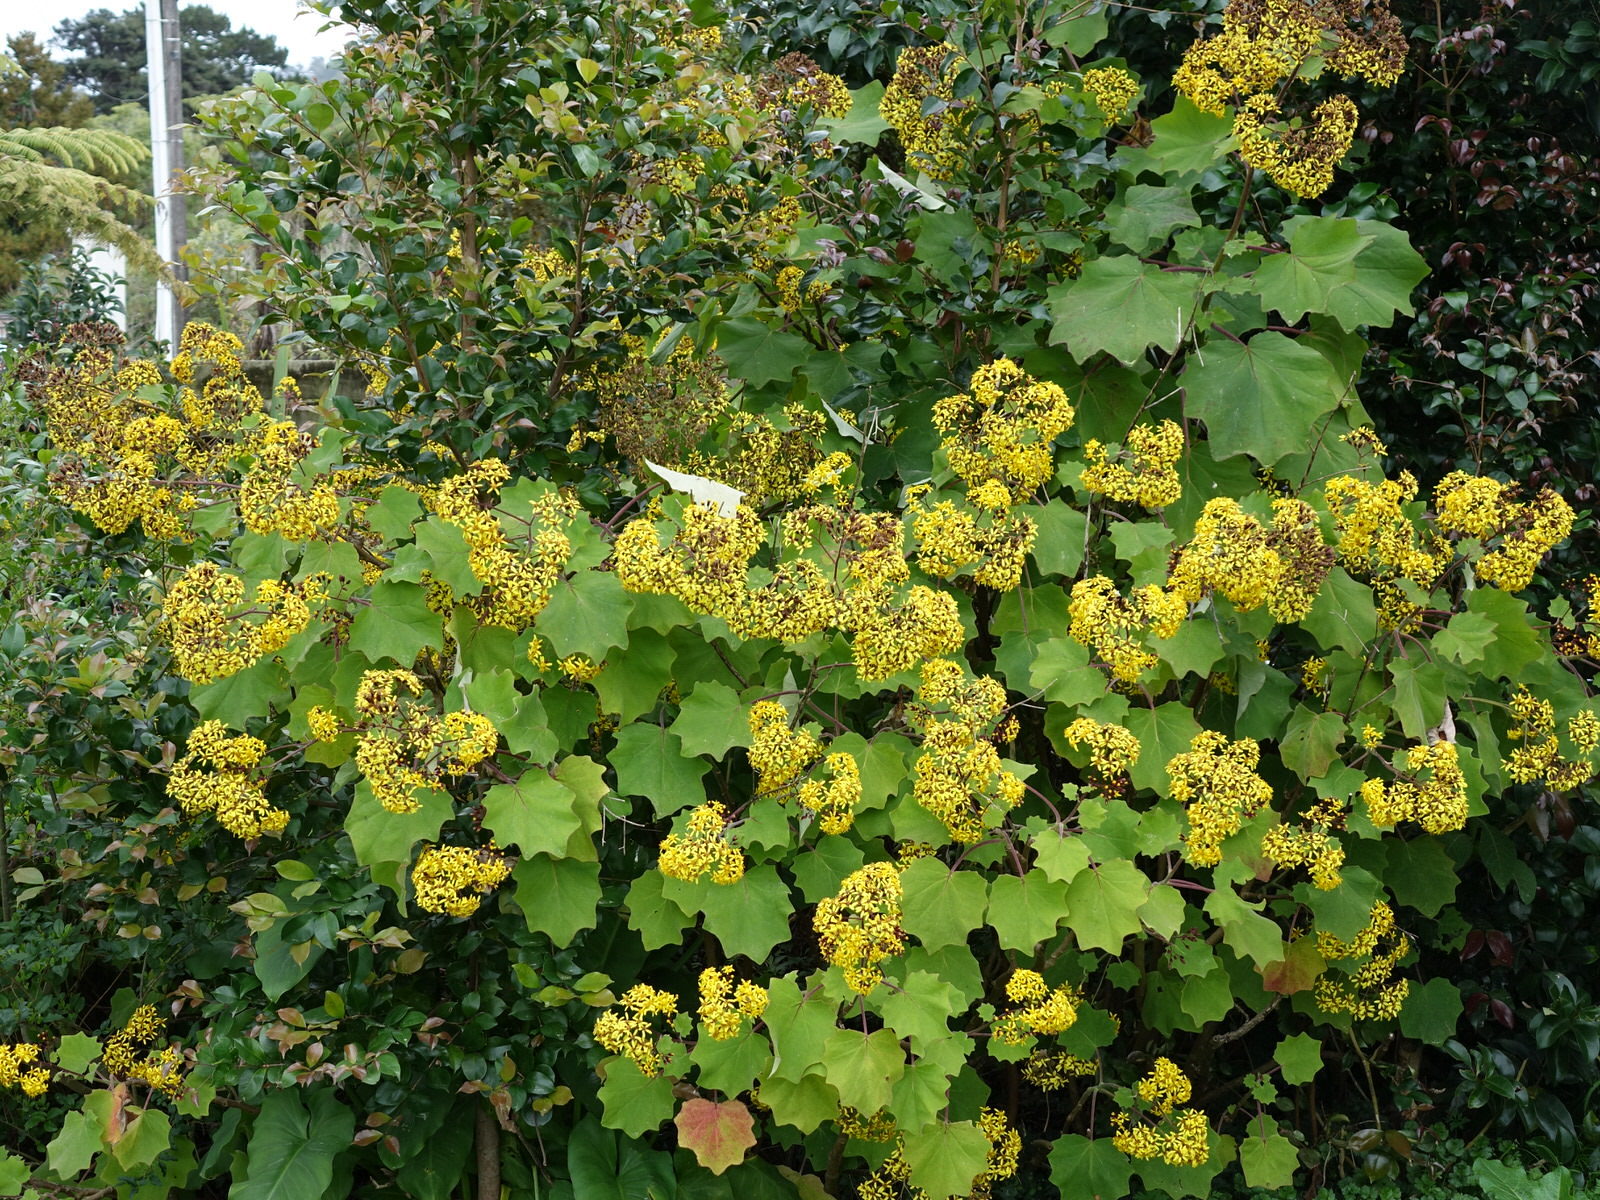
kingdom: Plantae
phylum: Tracheophyta
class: Magnoliopsida
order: Asterales
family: Asteraceae
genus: Roldana
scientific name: Roldana petasitis
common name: California-geranium
